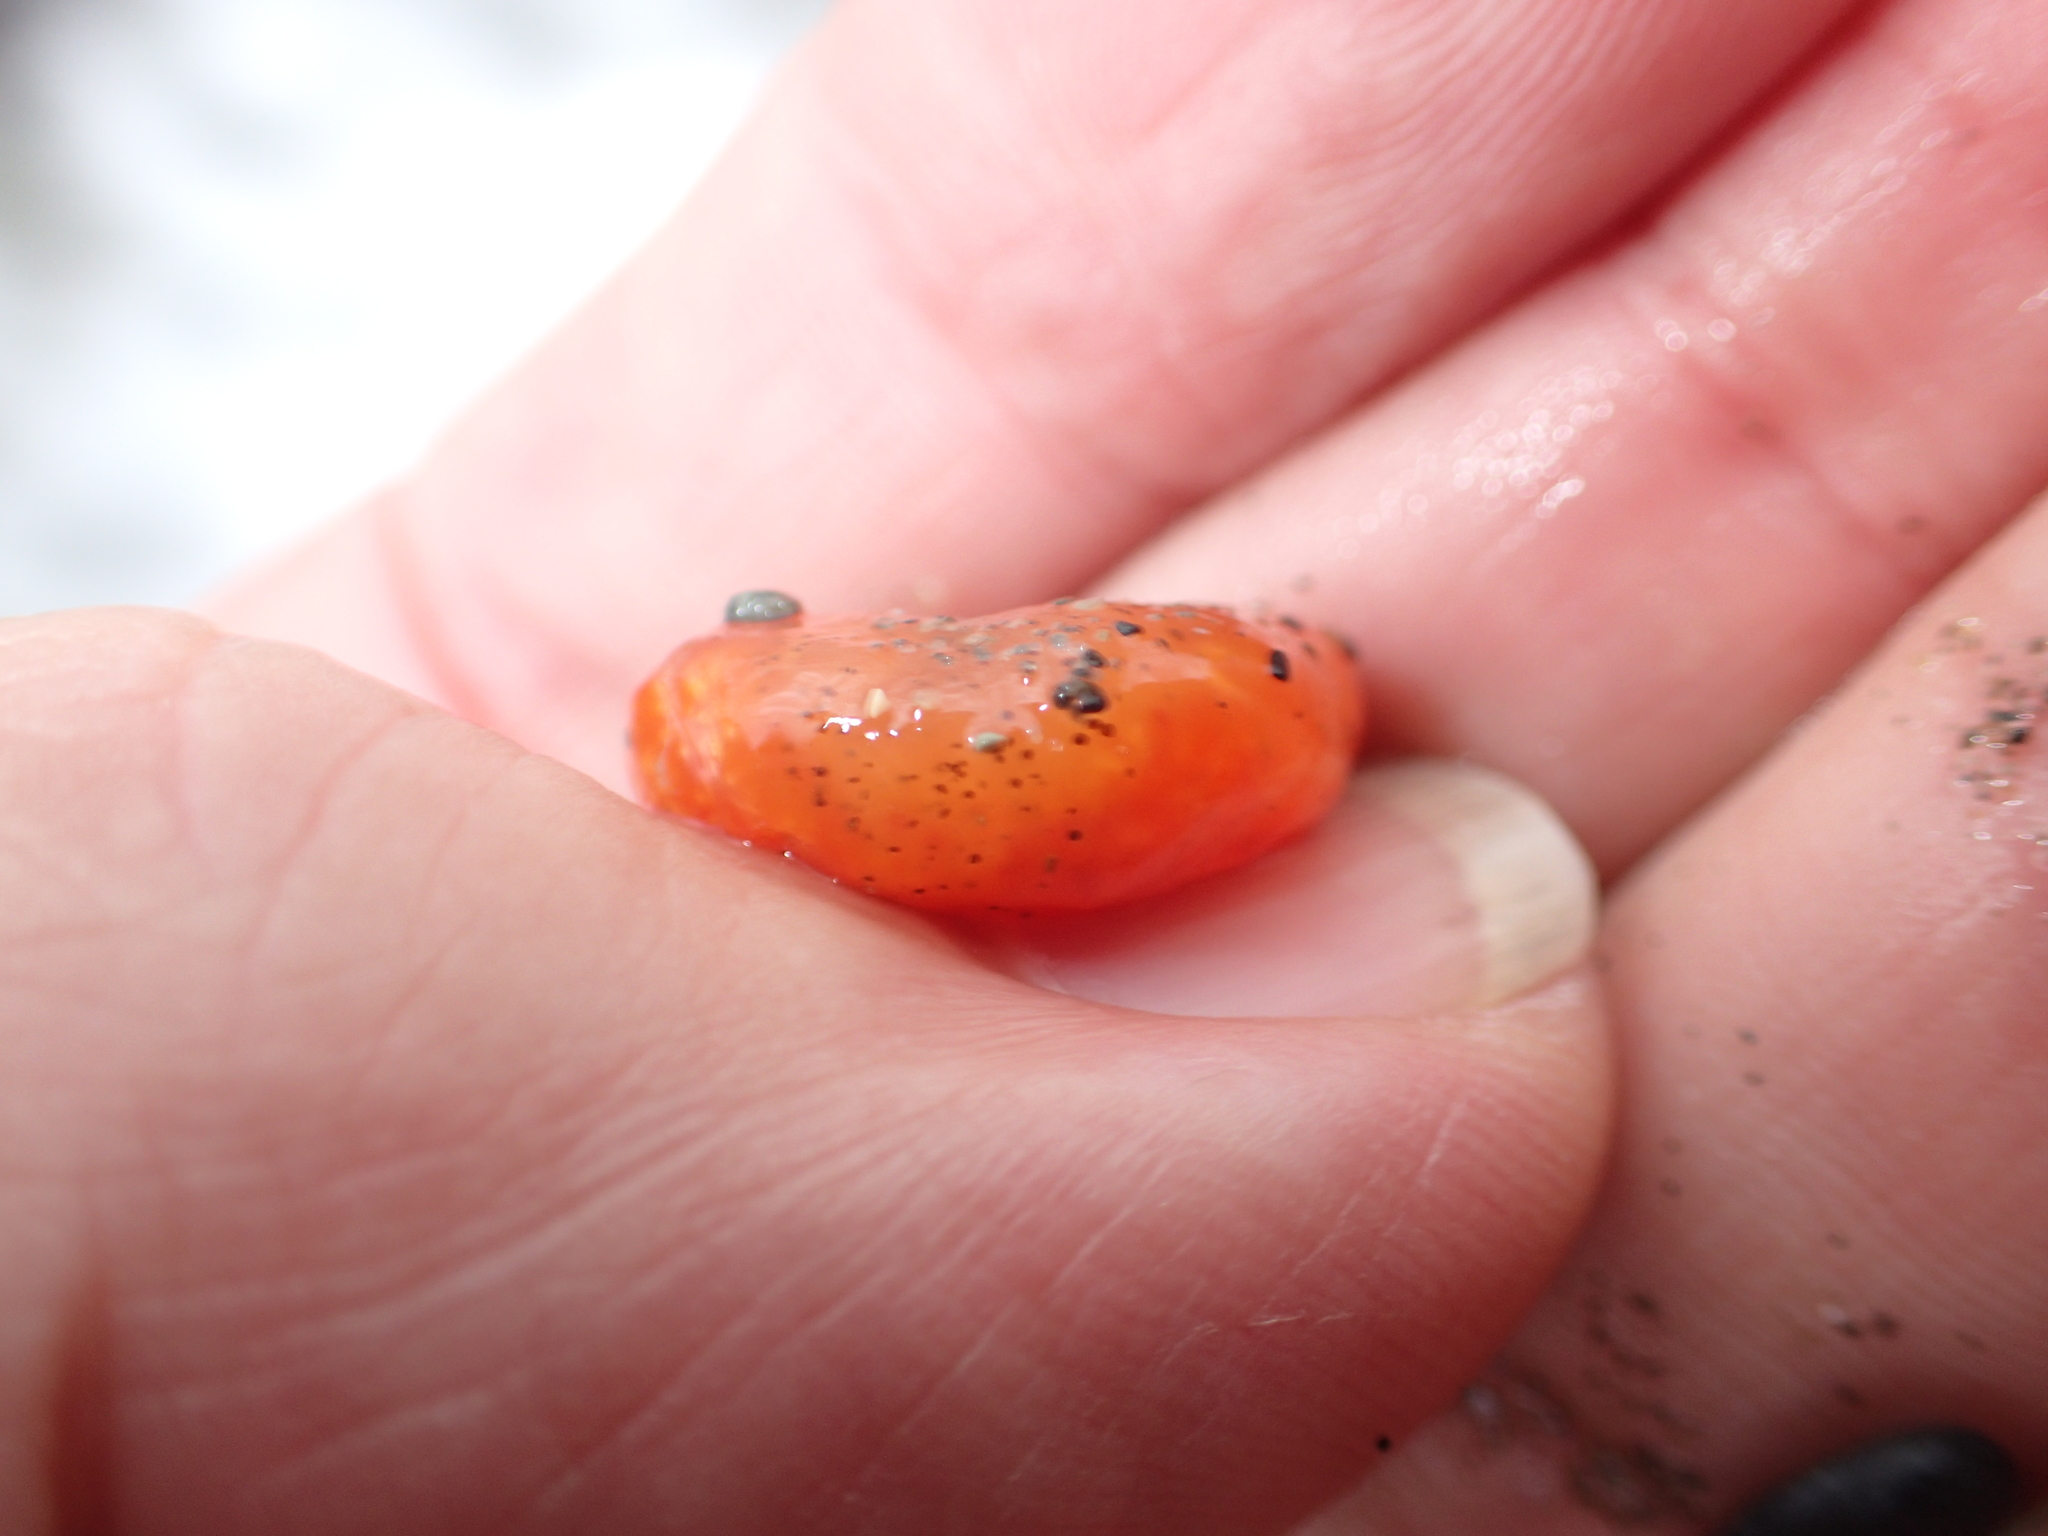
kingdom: Animalia
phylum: Chordata
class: Ascidiacea
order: Aplousobranchia
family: Polyclinidae
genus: Aplidium
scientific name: Aplidium benhami
